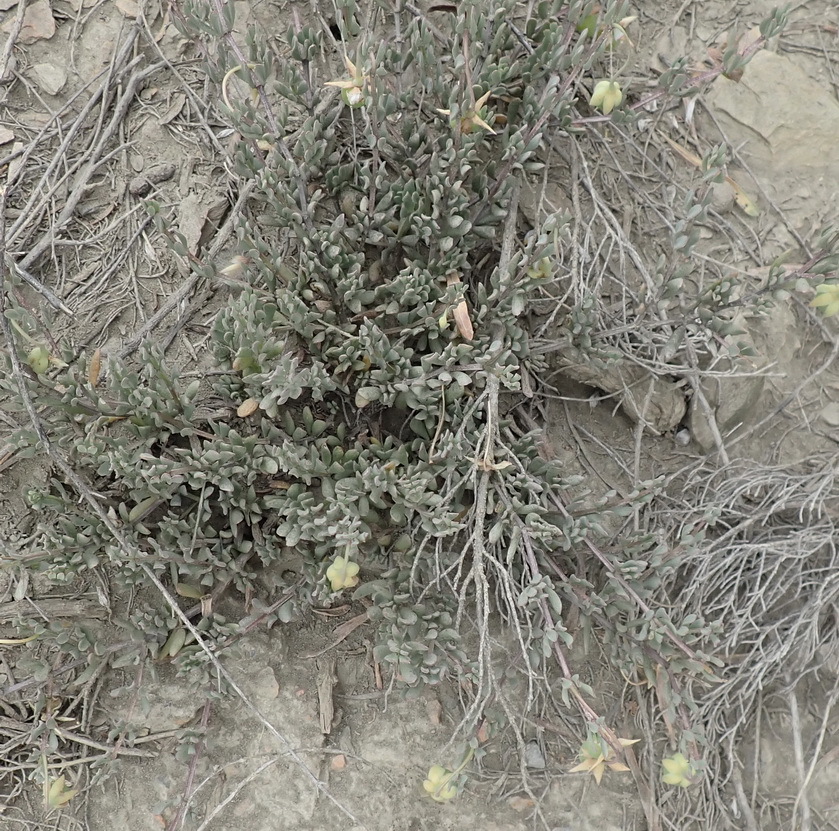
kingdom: Plantae
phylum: Tracheophyta
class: Magnoliopsida
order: Zygophyllales
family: Zygophyllaceae
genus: Roepera
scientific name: Roepera fulva
